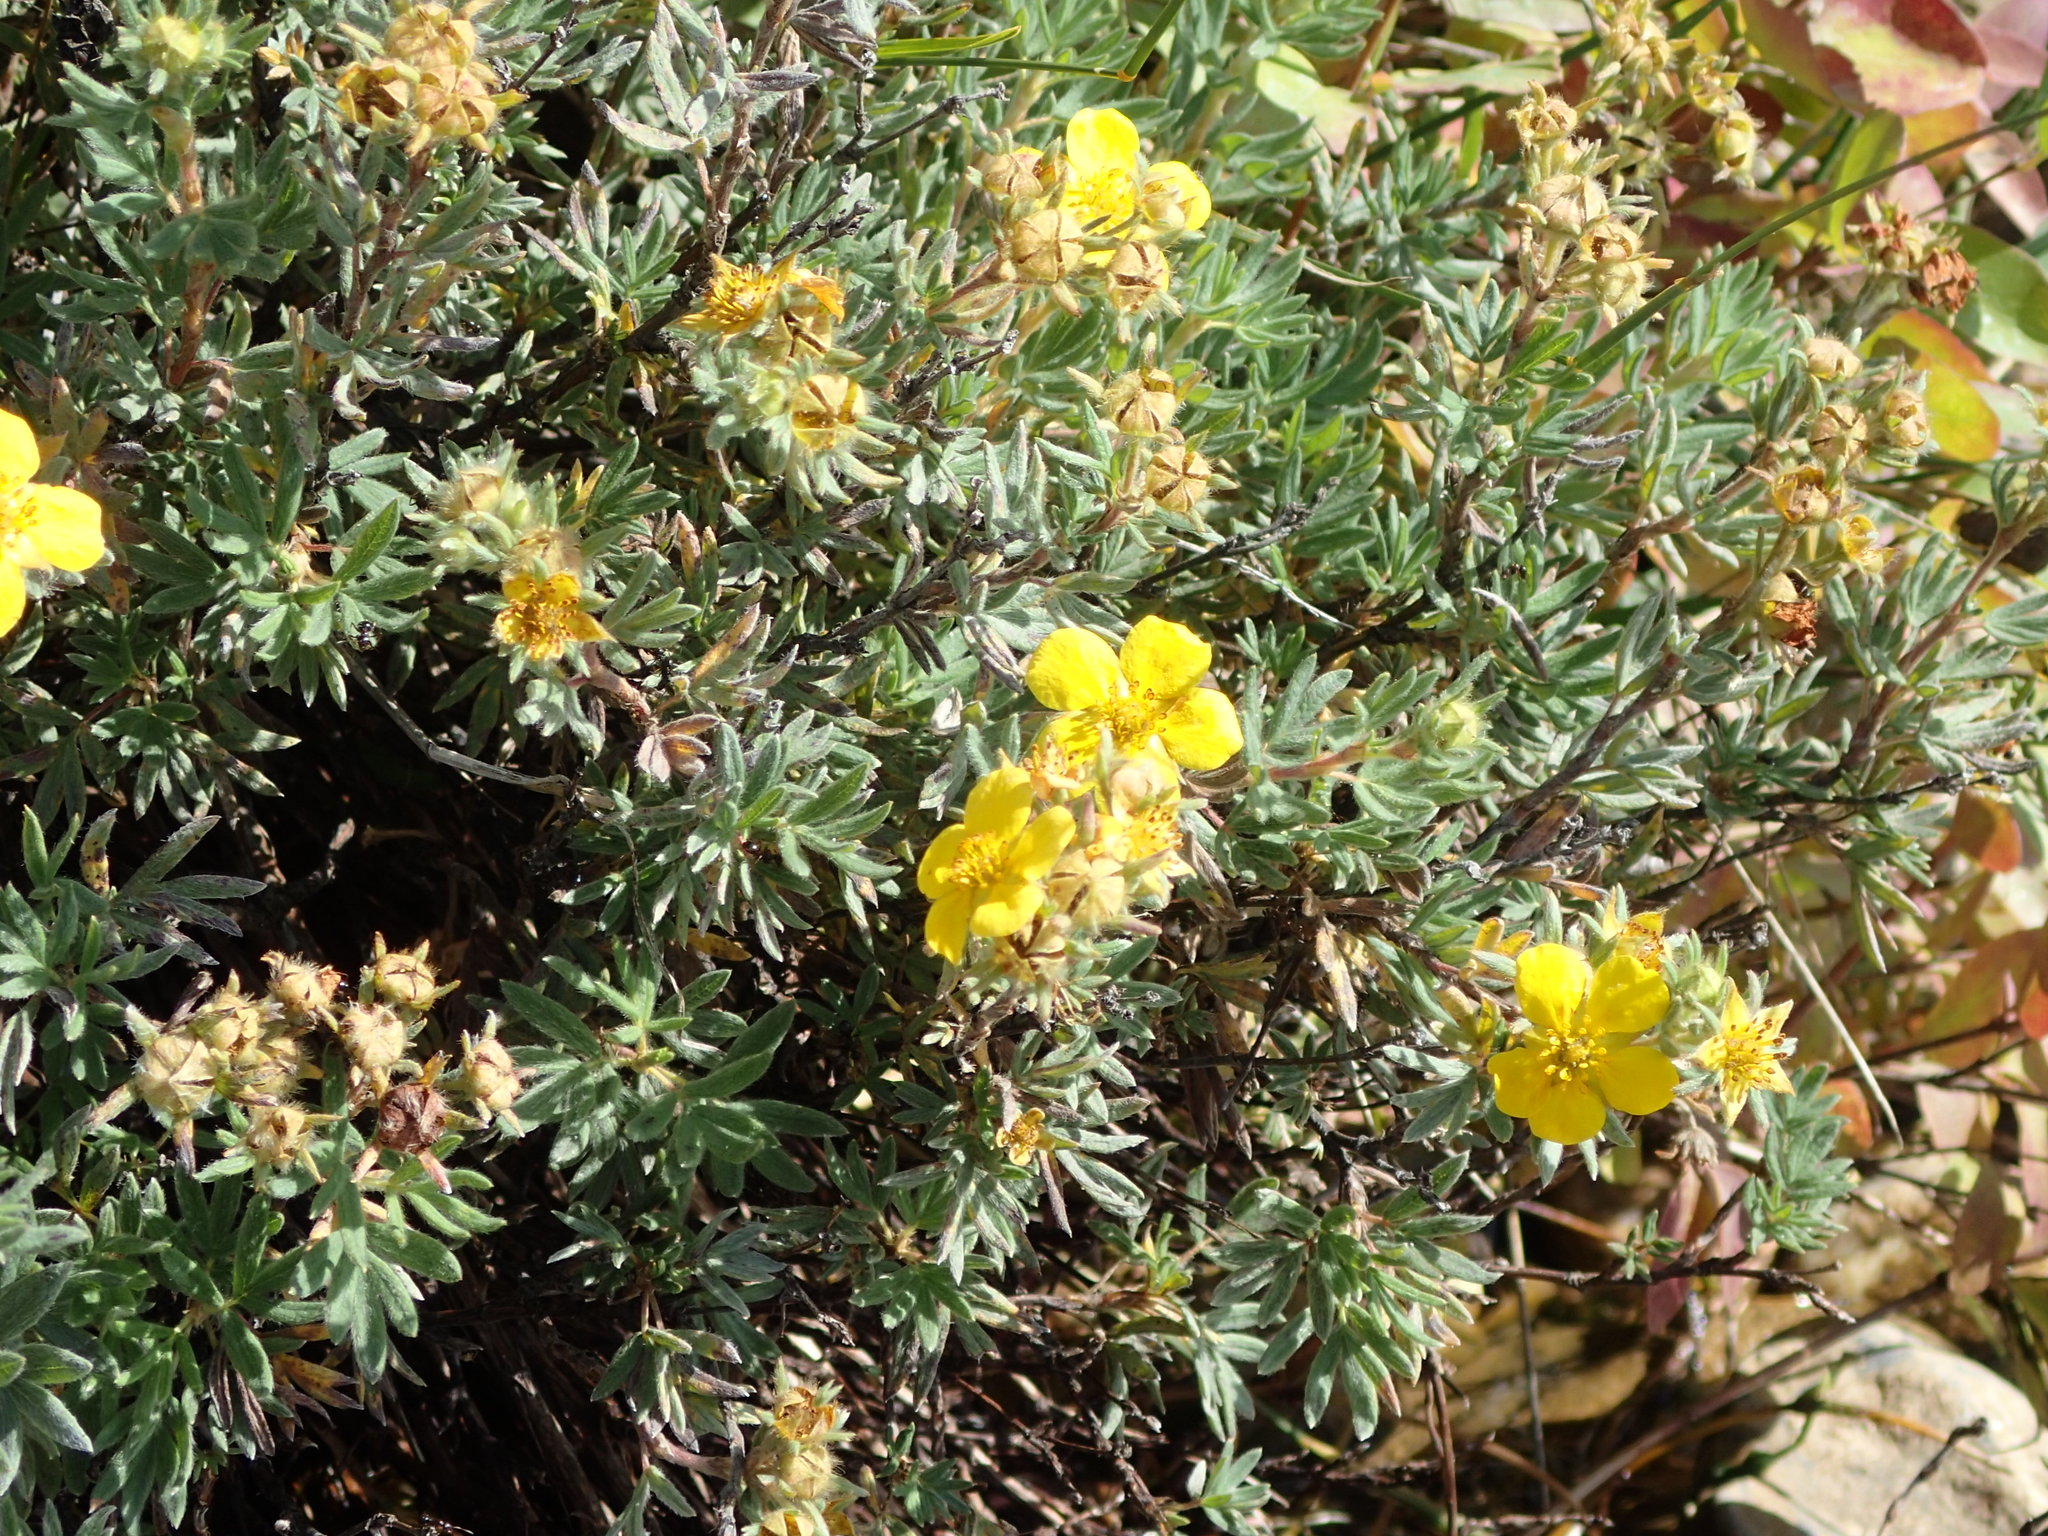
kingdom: Plantae
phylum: Tracheophyta
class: Magnoliopsida
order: Rosales
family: Rosaceae
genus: Dasiphora
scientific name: Dasiphora fruticosa
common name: Shrubby cinquefoil
